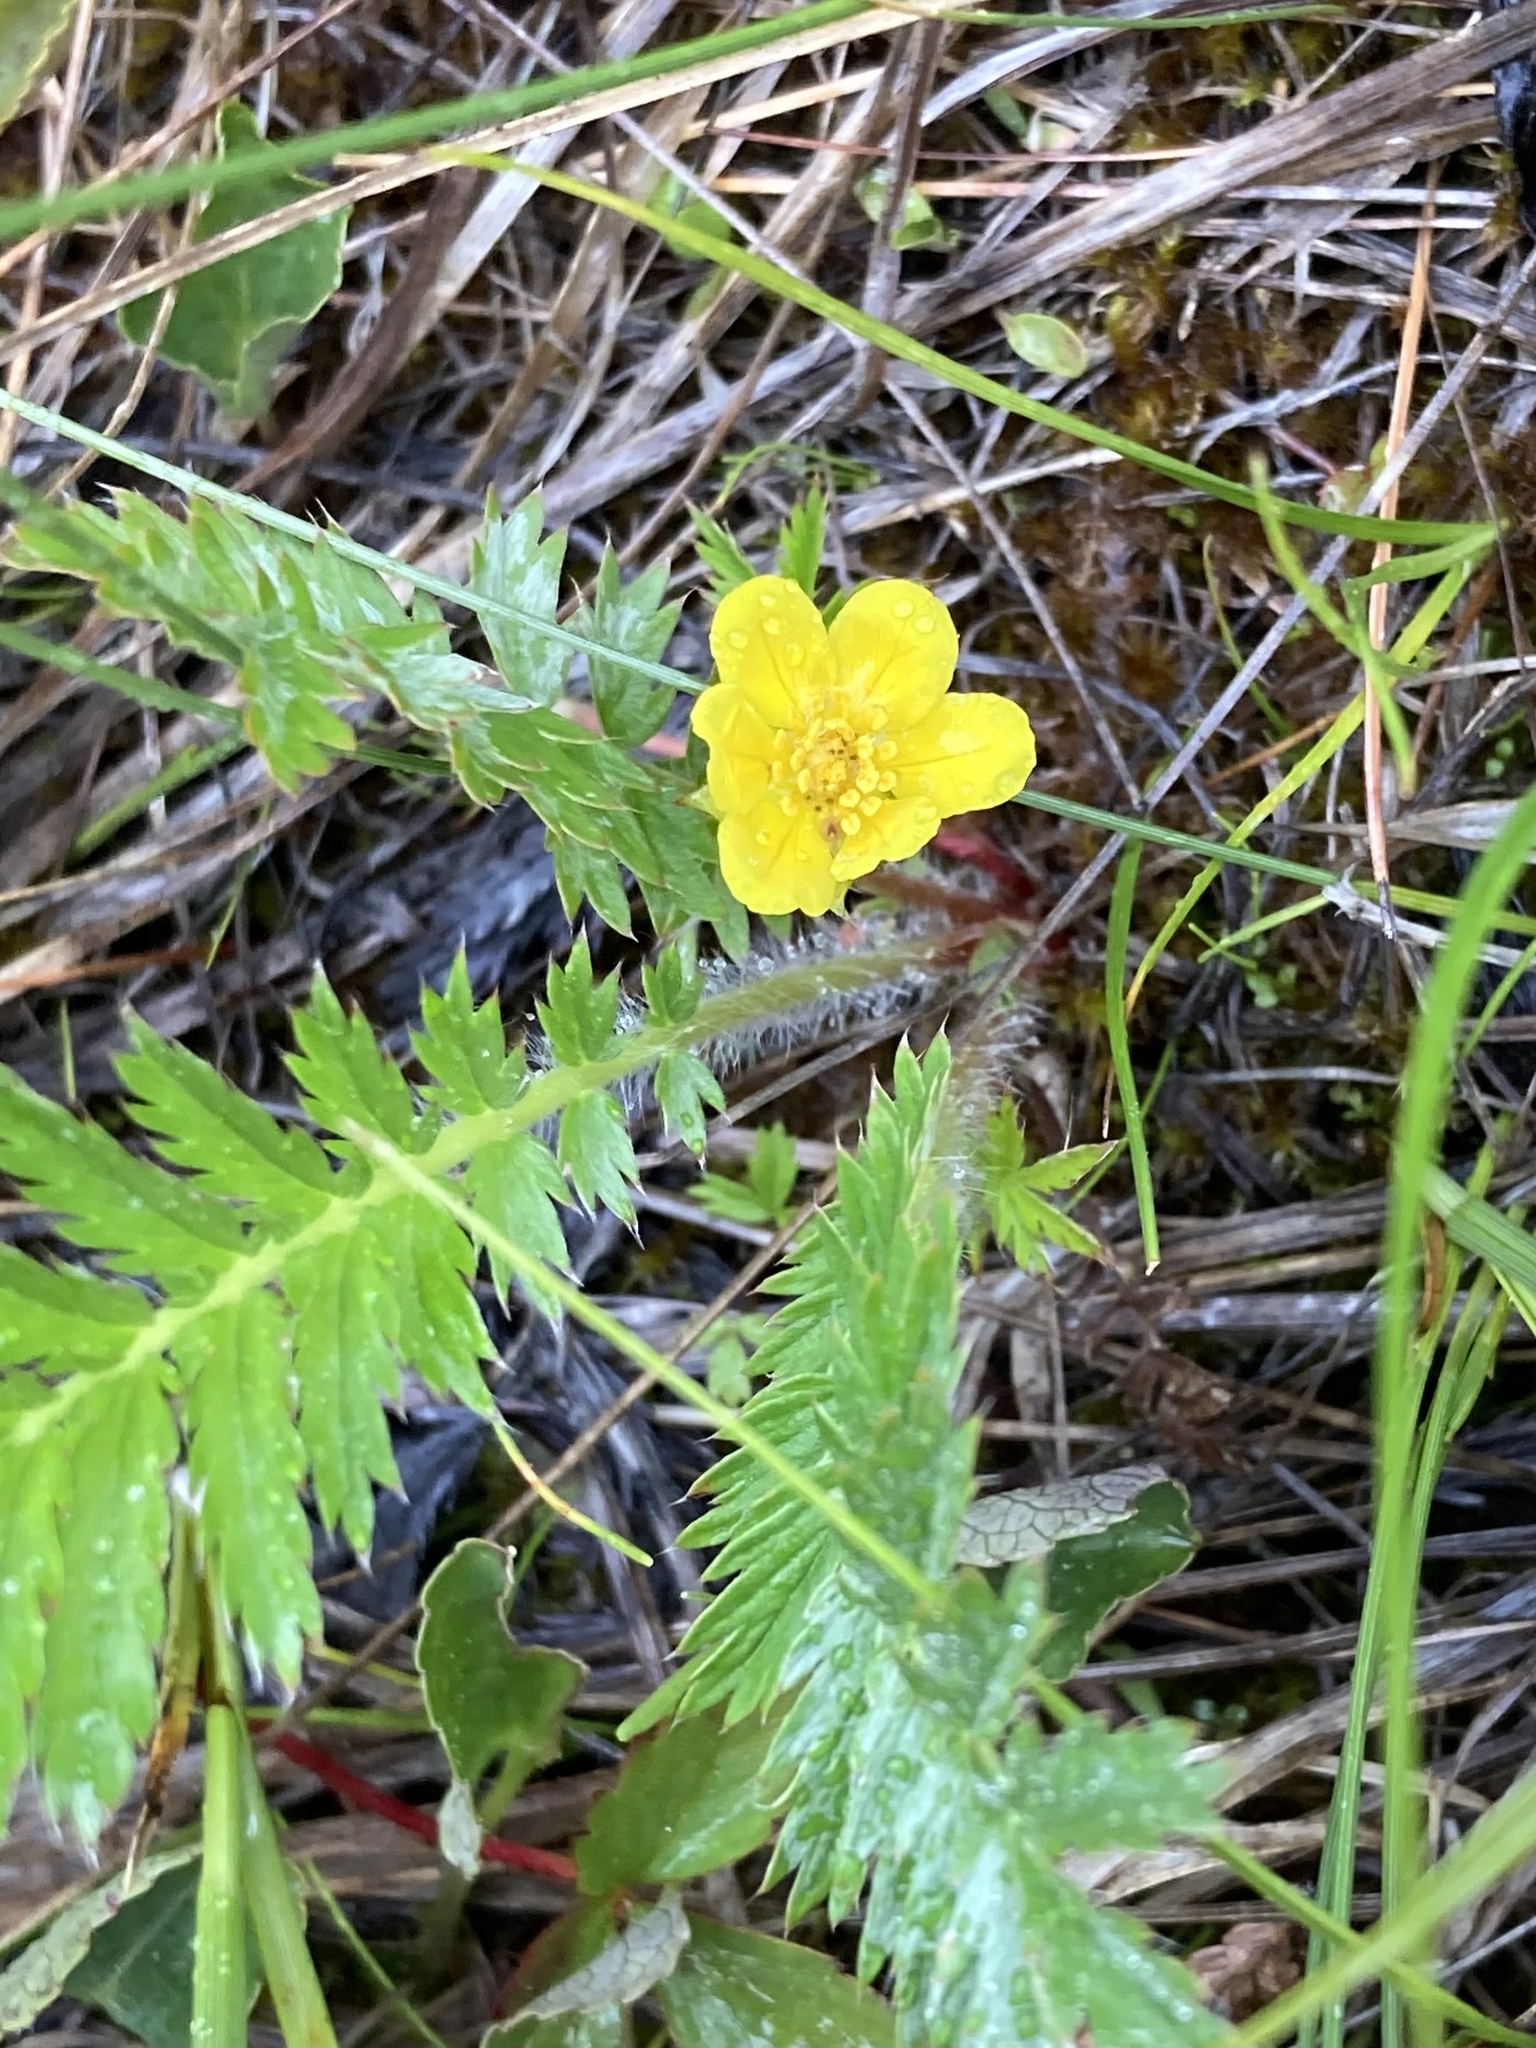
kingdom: Plantae
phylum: Tracheophyta
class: Magnoliopsida
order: Rosales
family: Rosaceae
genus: Argentina
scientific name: Argentina anserina
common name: Common silverweed
